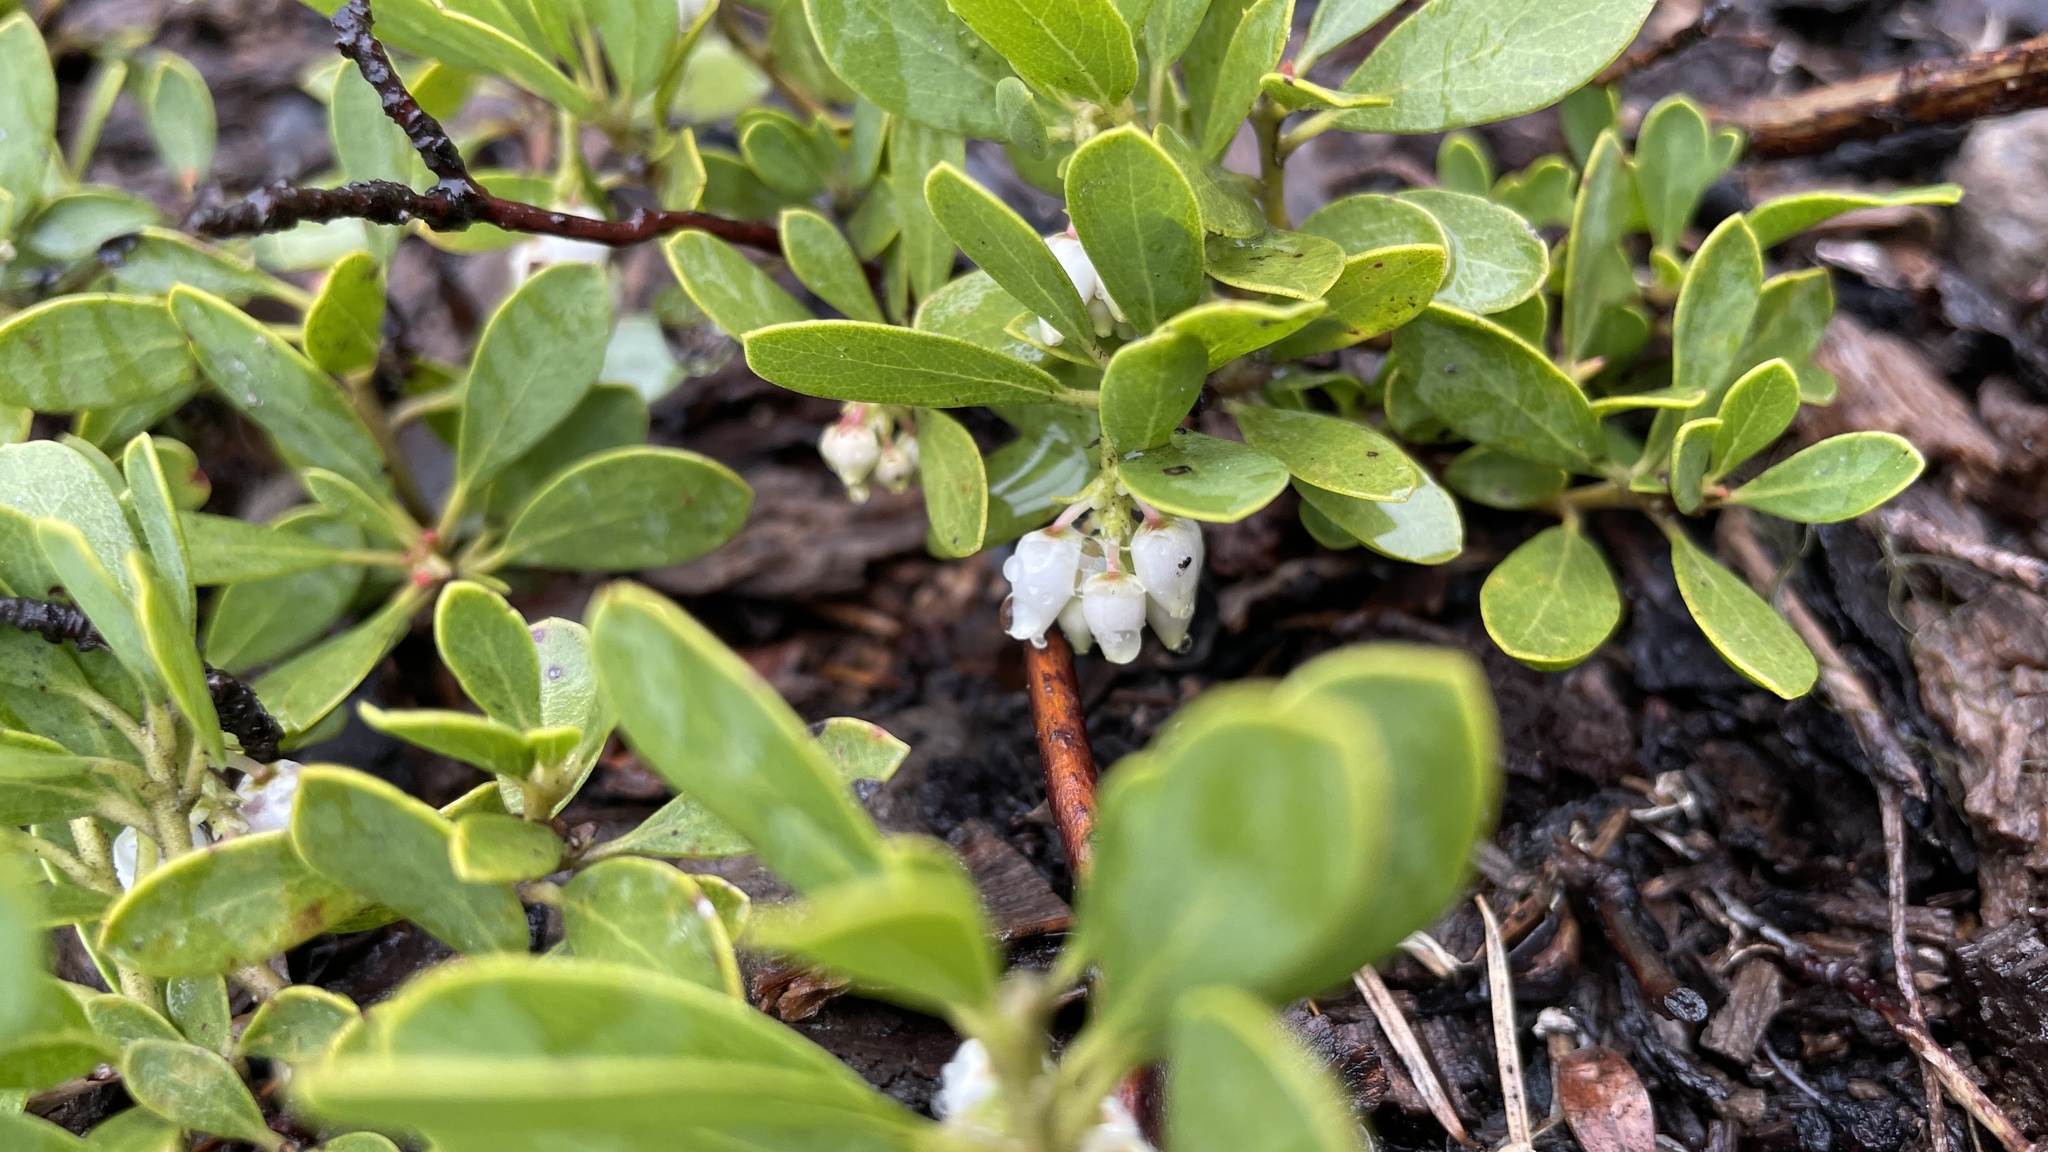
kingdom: Plantae
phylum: Tracheophyta
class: Magnoliopsida
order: Ericales
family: Ericaceae
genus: Arctostaphylos
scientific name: Arctostaphylos nevadensis
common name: Pinemat manzanita
